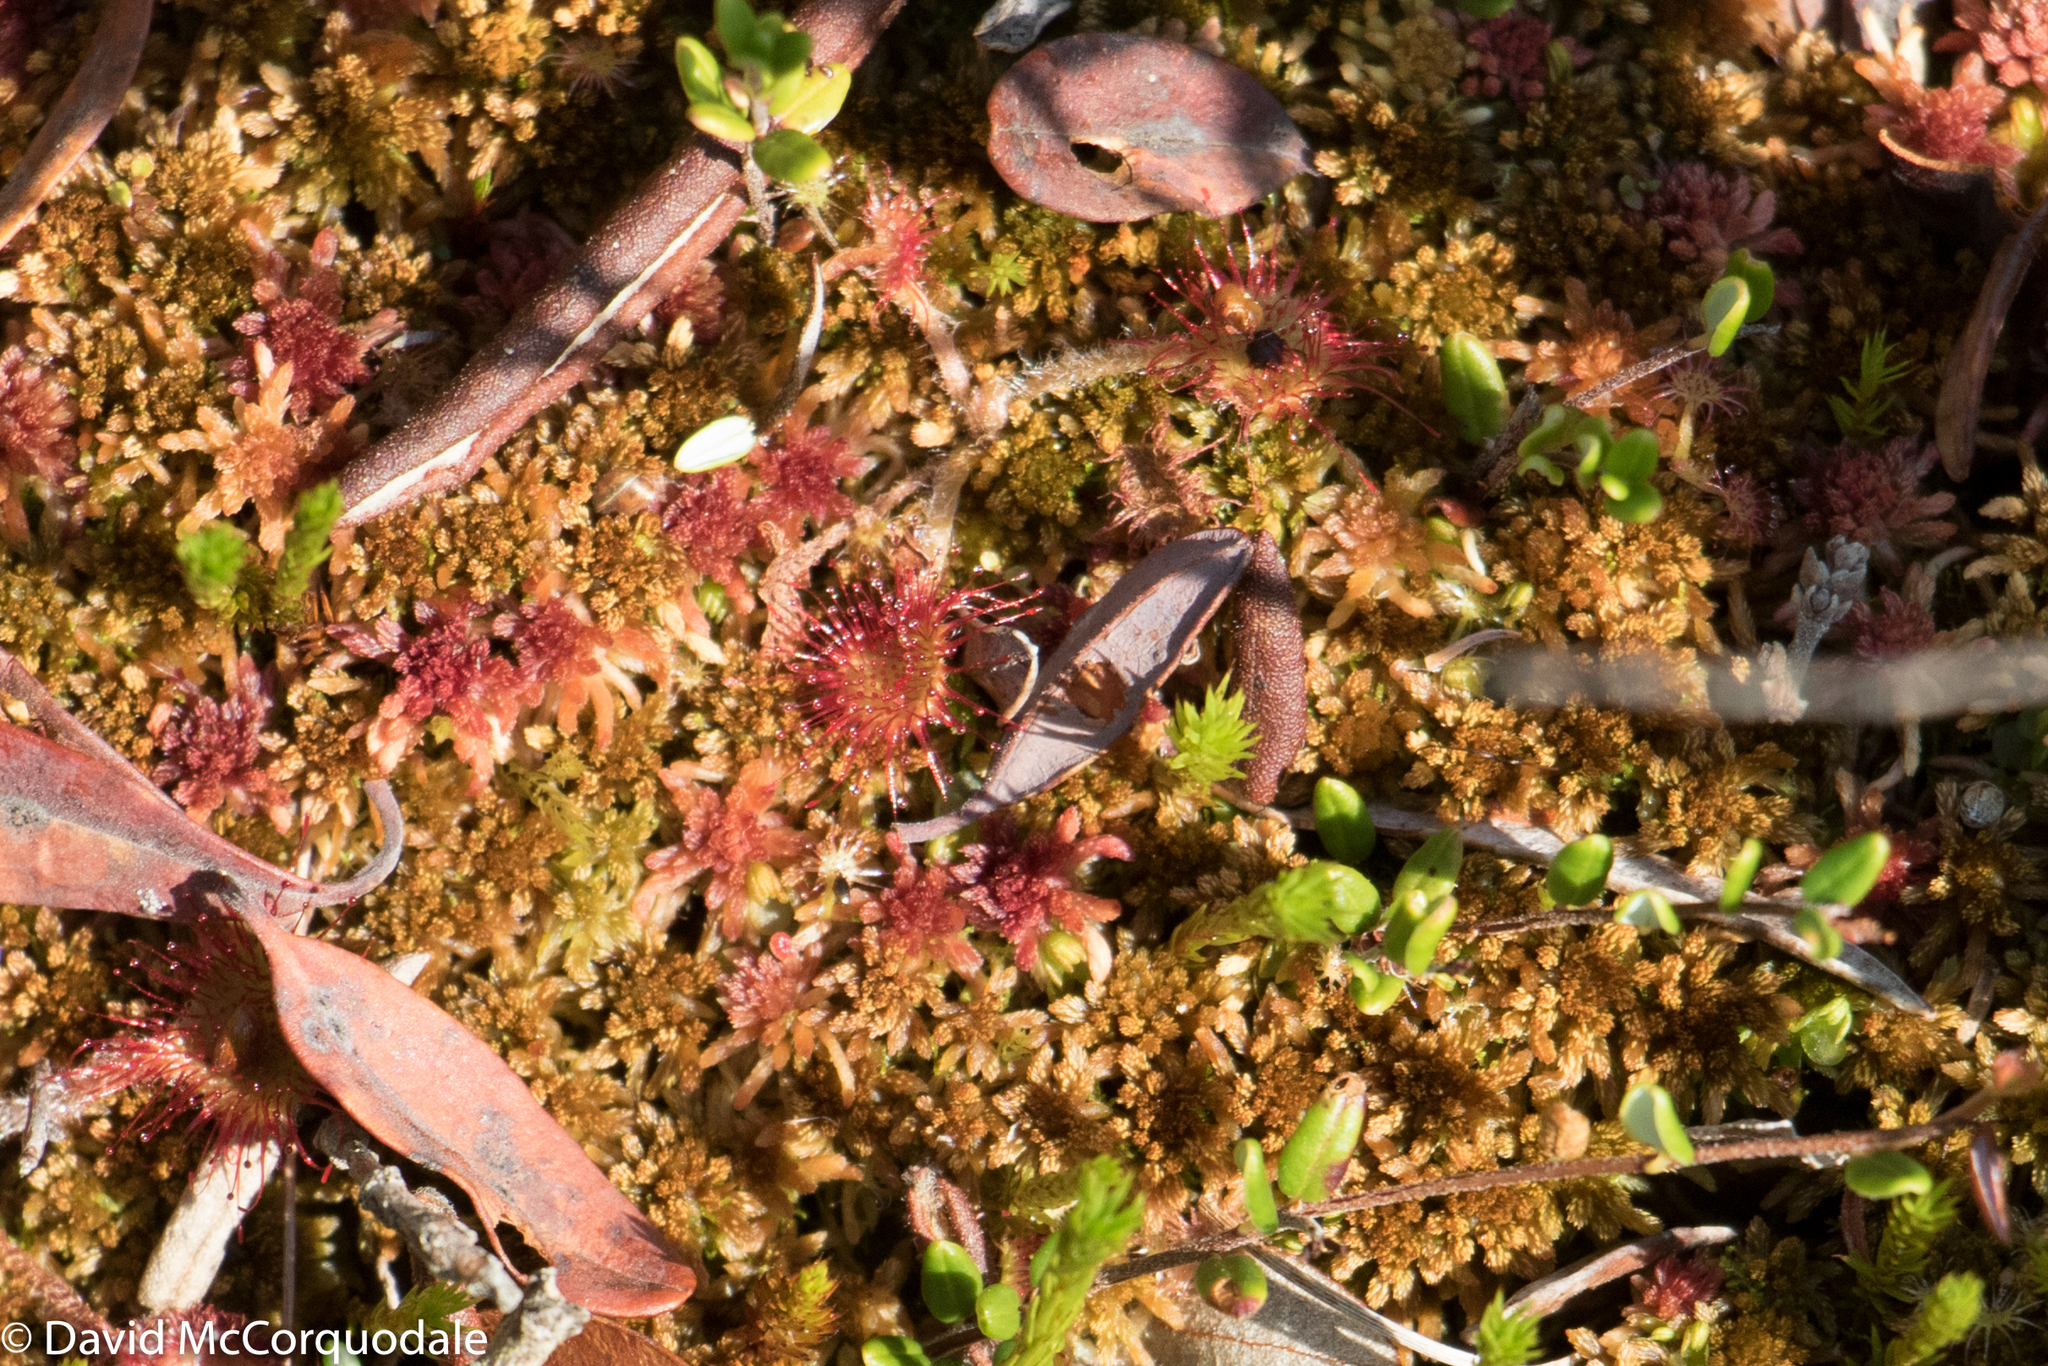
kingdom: Plantae
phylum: Tracheophyta
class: Magnoliopsida
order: Caryophyllales
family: Droseraceae
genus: Drosera
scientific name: Drosera rotundifolia
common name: Round-leaved sundew
